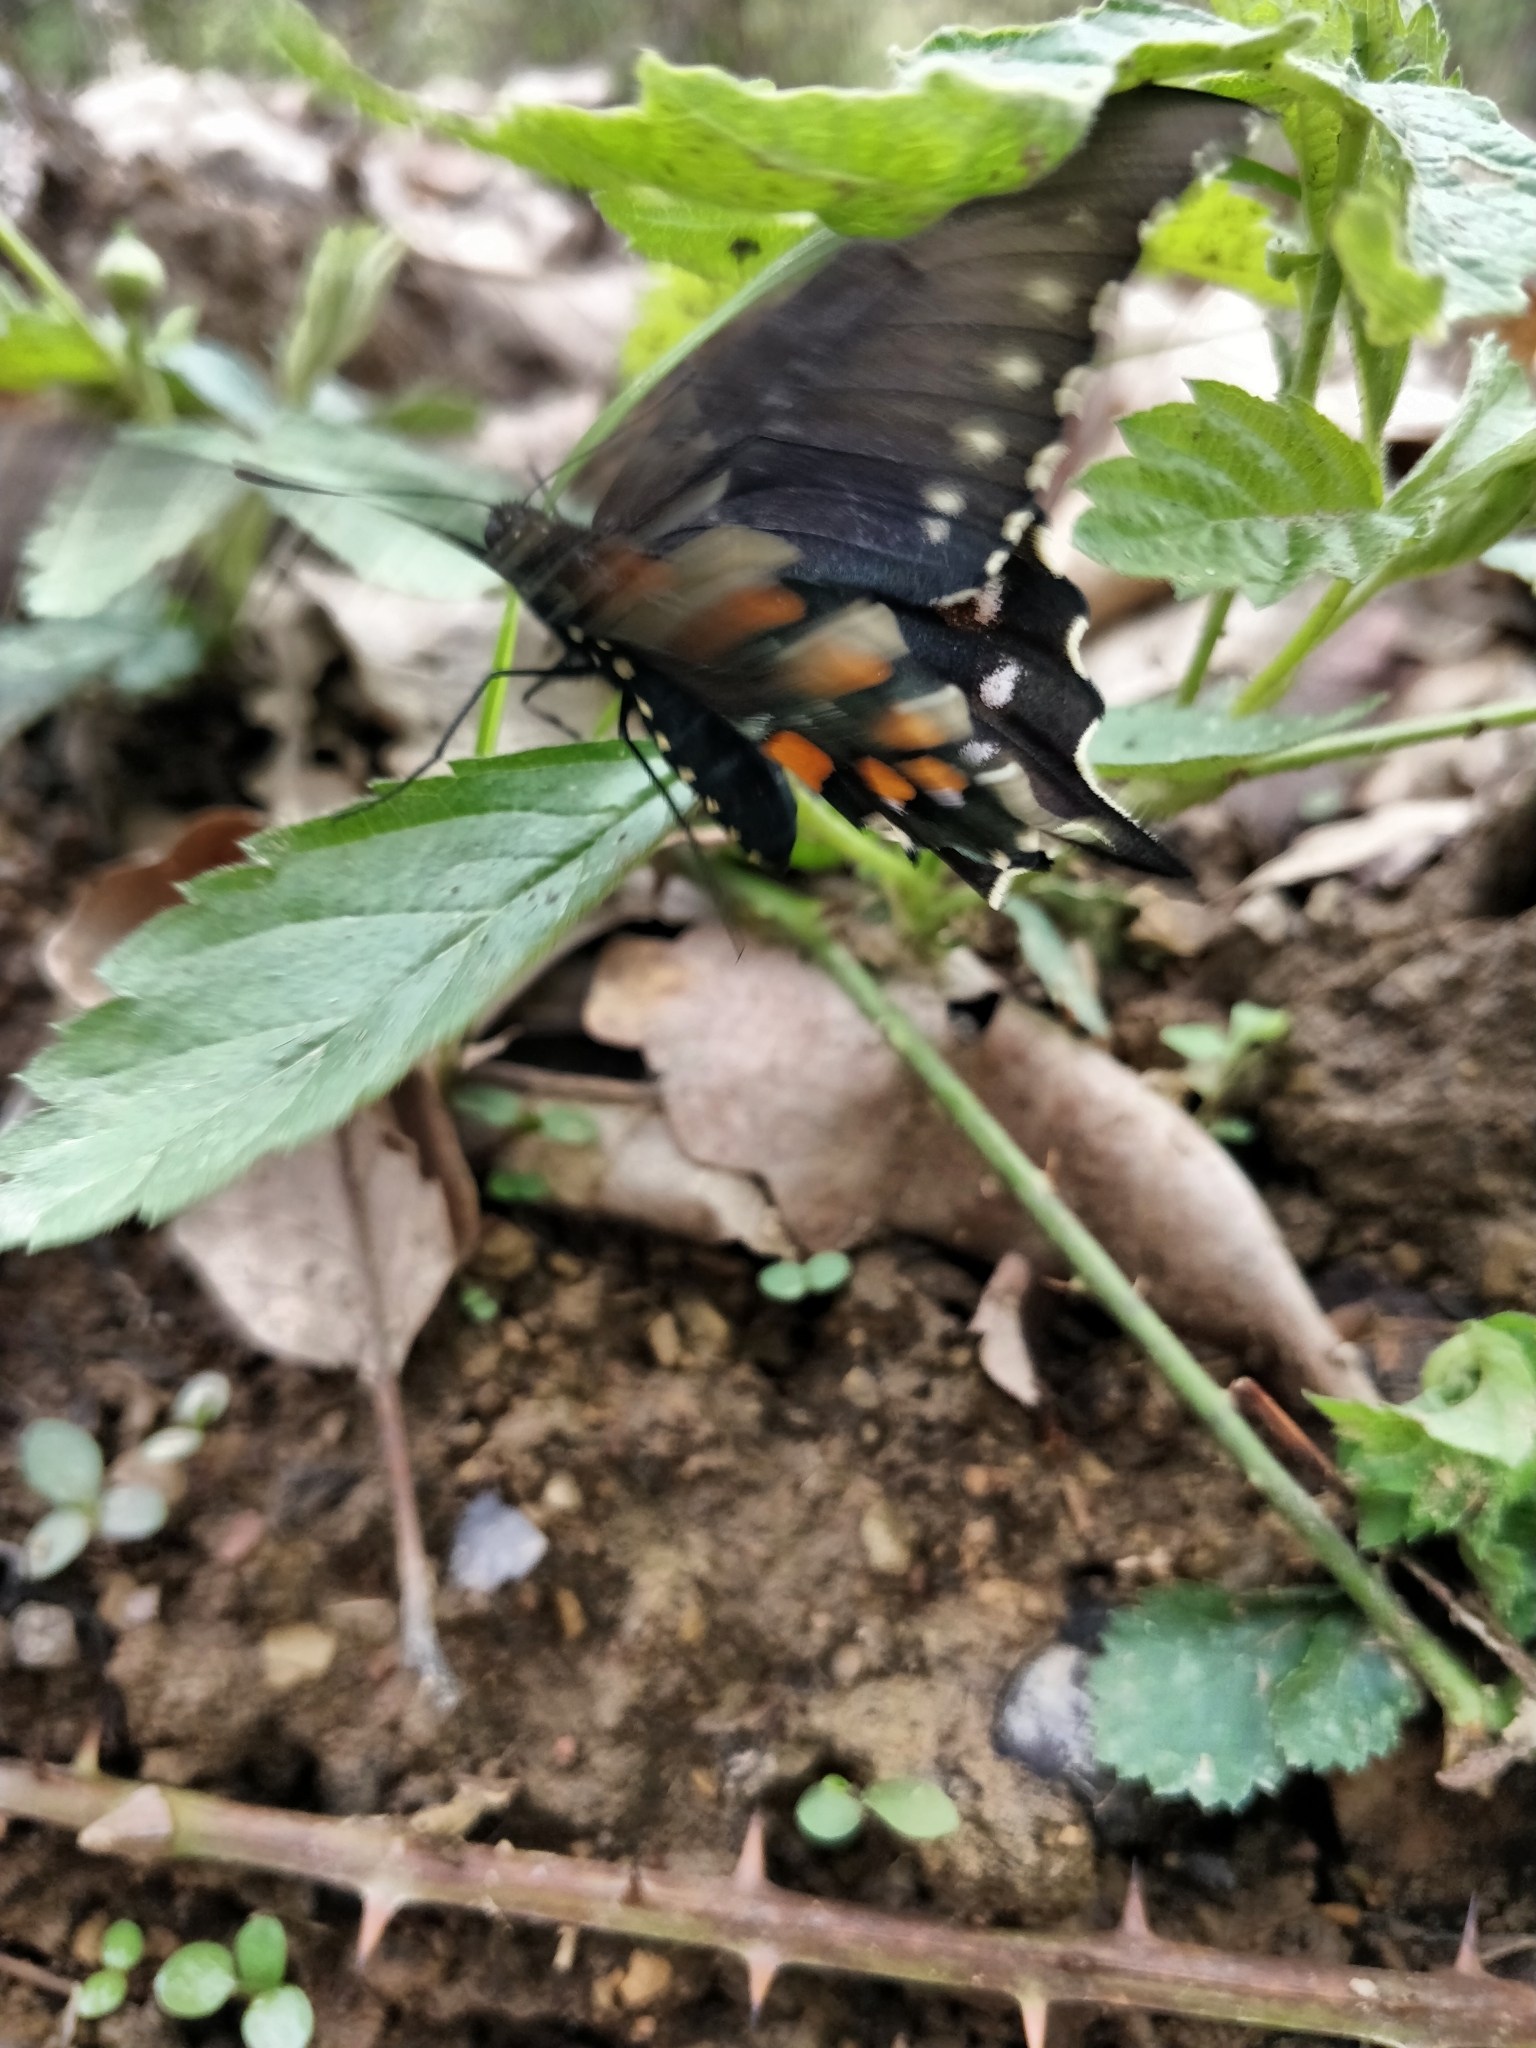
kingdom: Animalia
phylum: Arthropoda
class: Insecta
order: Lepidoptera
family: Papilionidae
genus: Battus
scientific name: Battus philenor
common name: Pipevine swallowtail
